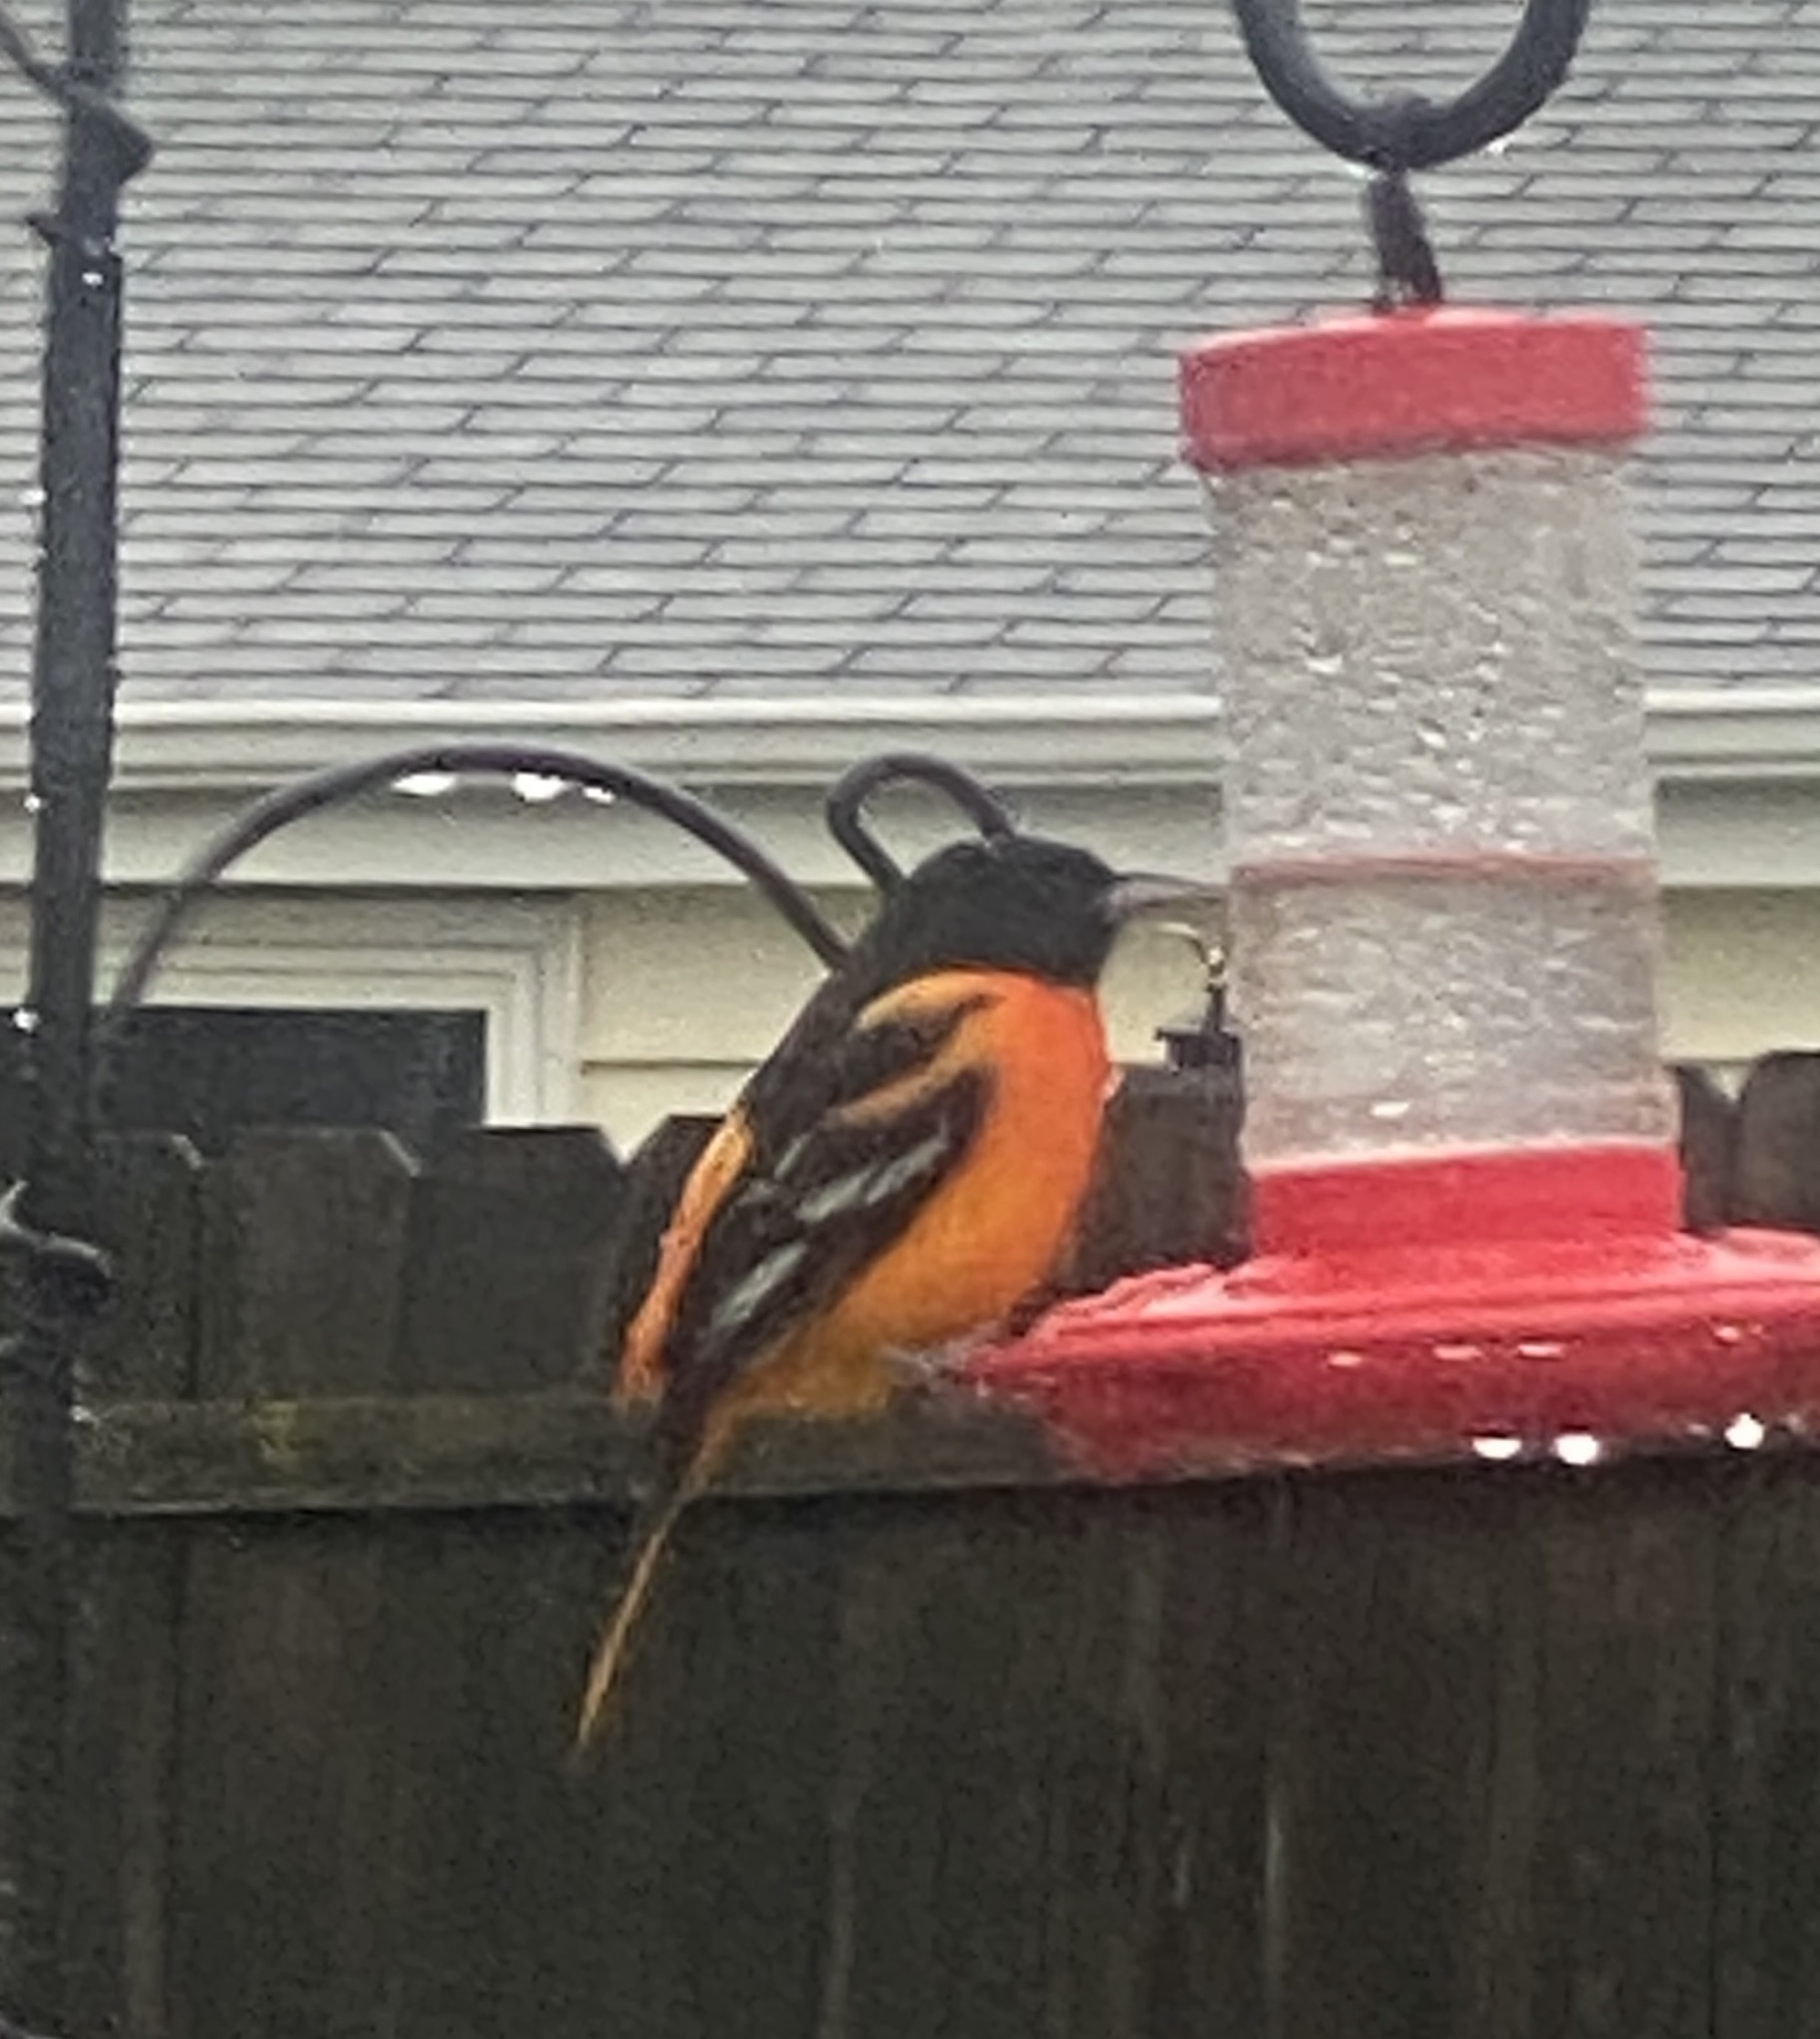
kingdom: Animalia
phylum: Chordata
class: Aves
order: Passeriformes
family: Icteridae
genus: Icterus
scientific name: Icterus galbula
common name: Baltimore oriole
